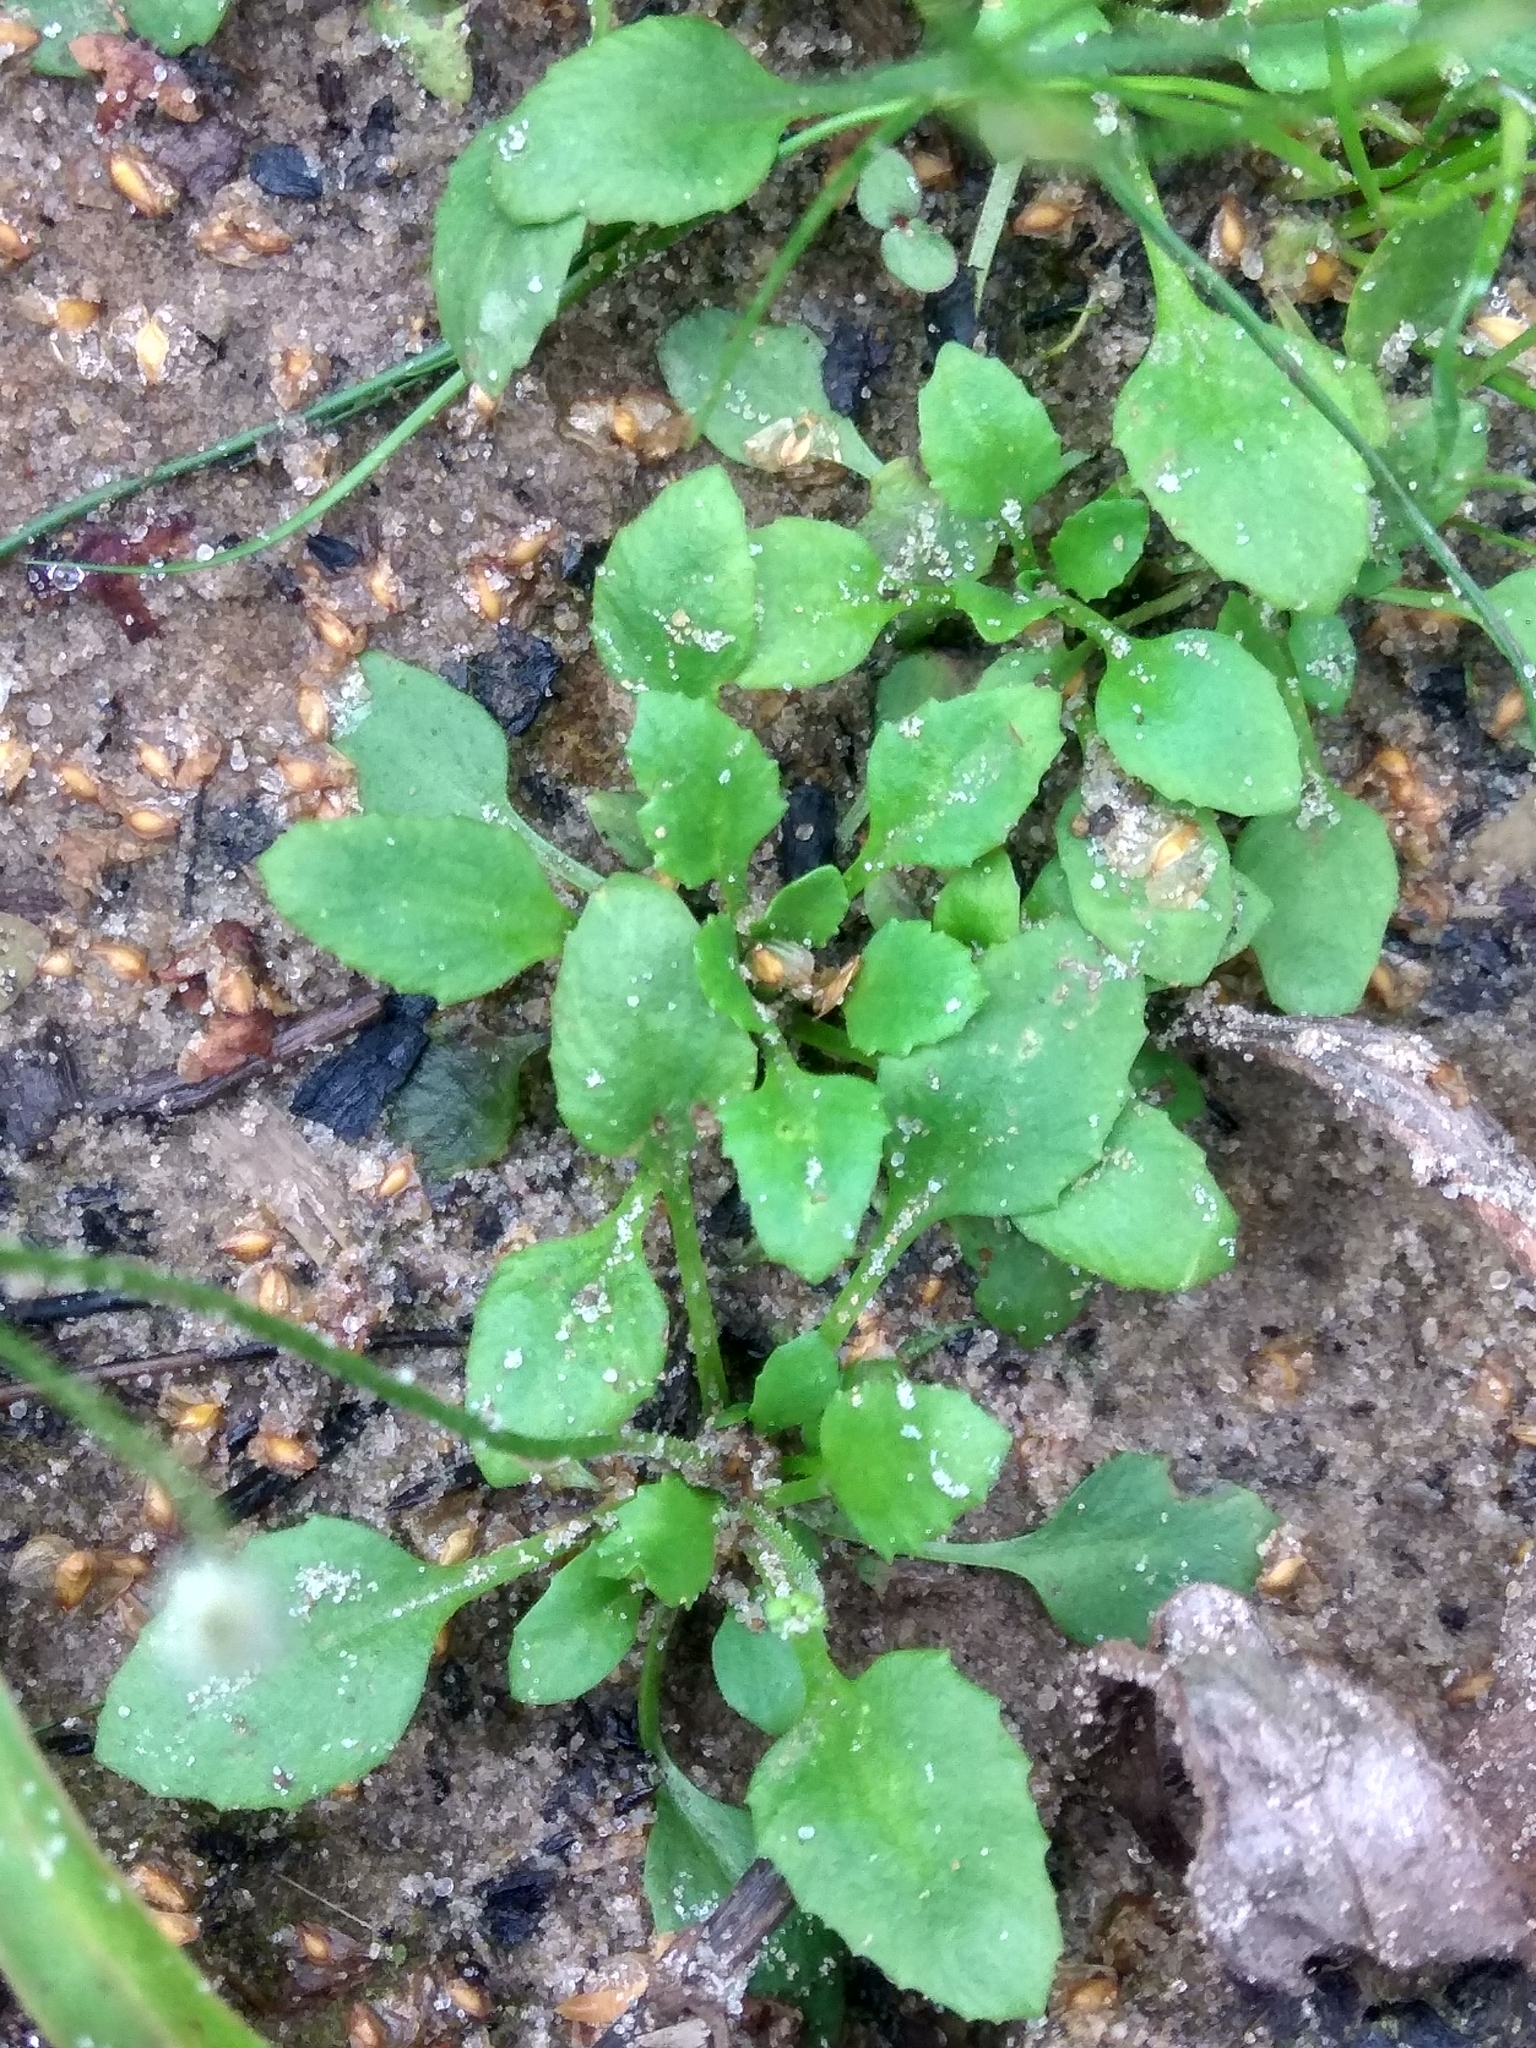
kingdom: Plantae
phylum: Tracheophyta
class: Magnoliopsida
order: Ericales
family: Primulaceae
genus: Androsace
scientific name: Androsace filiformis
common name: Filiform rock jasmine
